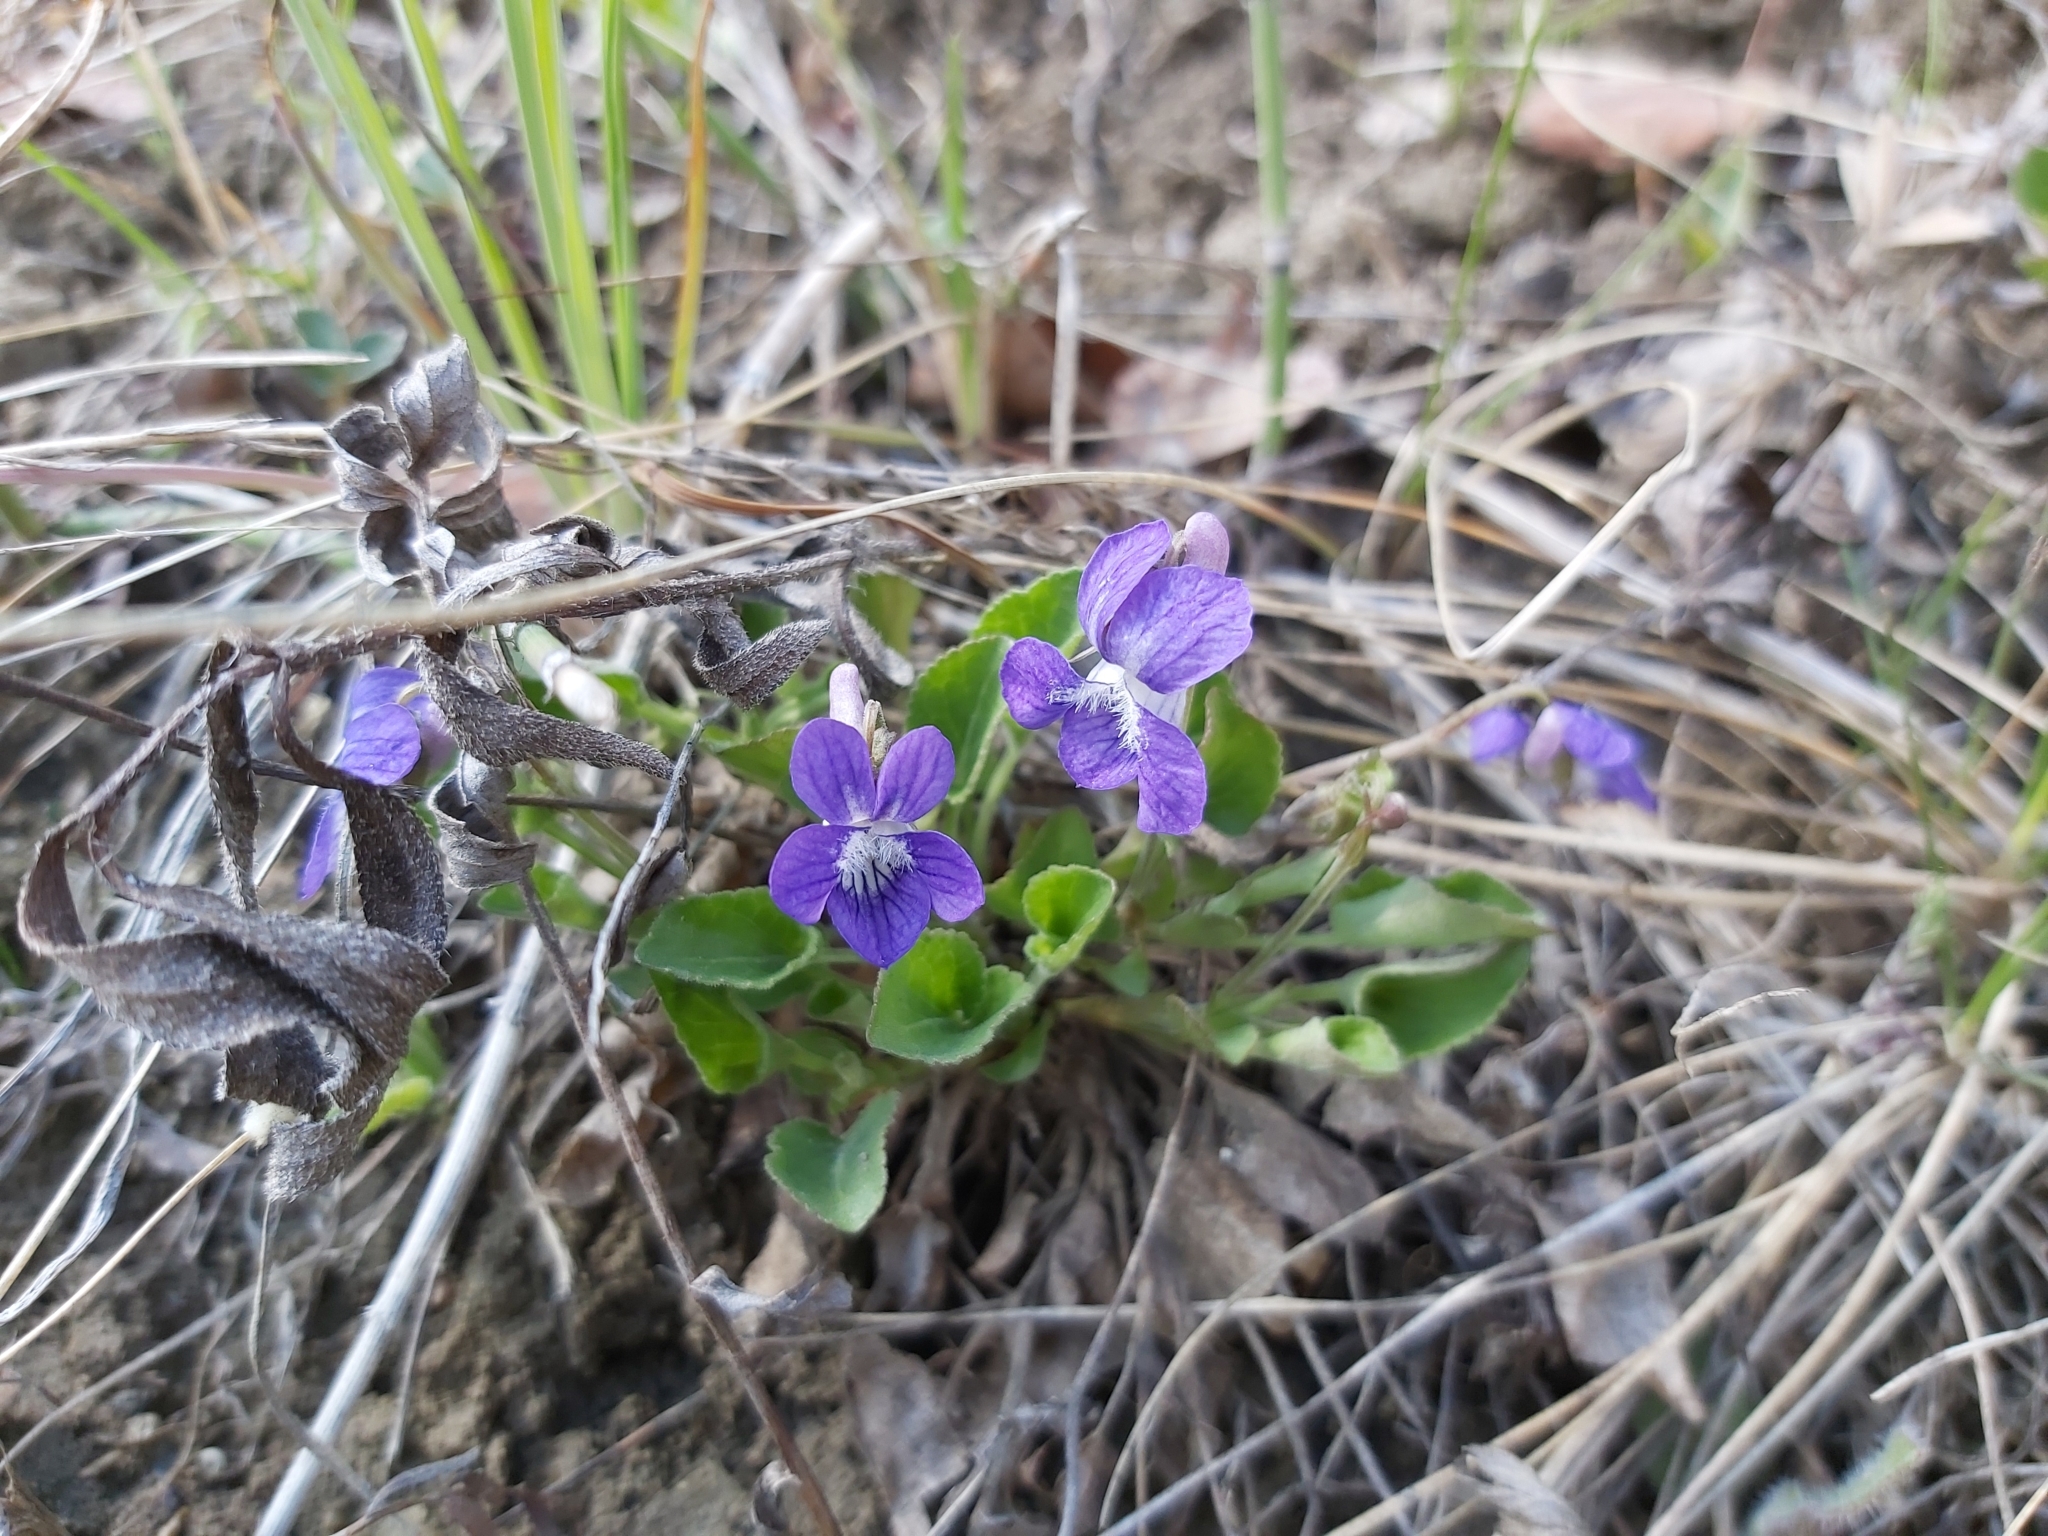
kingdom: Plantae
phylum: Tracheophyta
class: Magnoliopsida
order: Malpighiales
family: Violaceae
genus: Viola
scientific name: Viola adunca
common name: Sand violet
